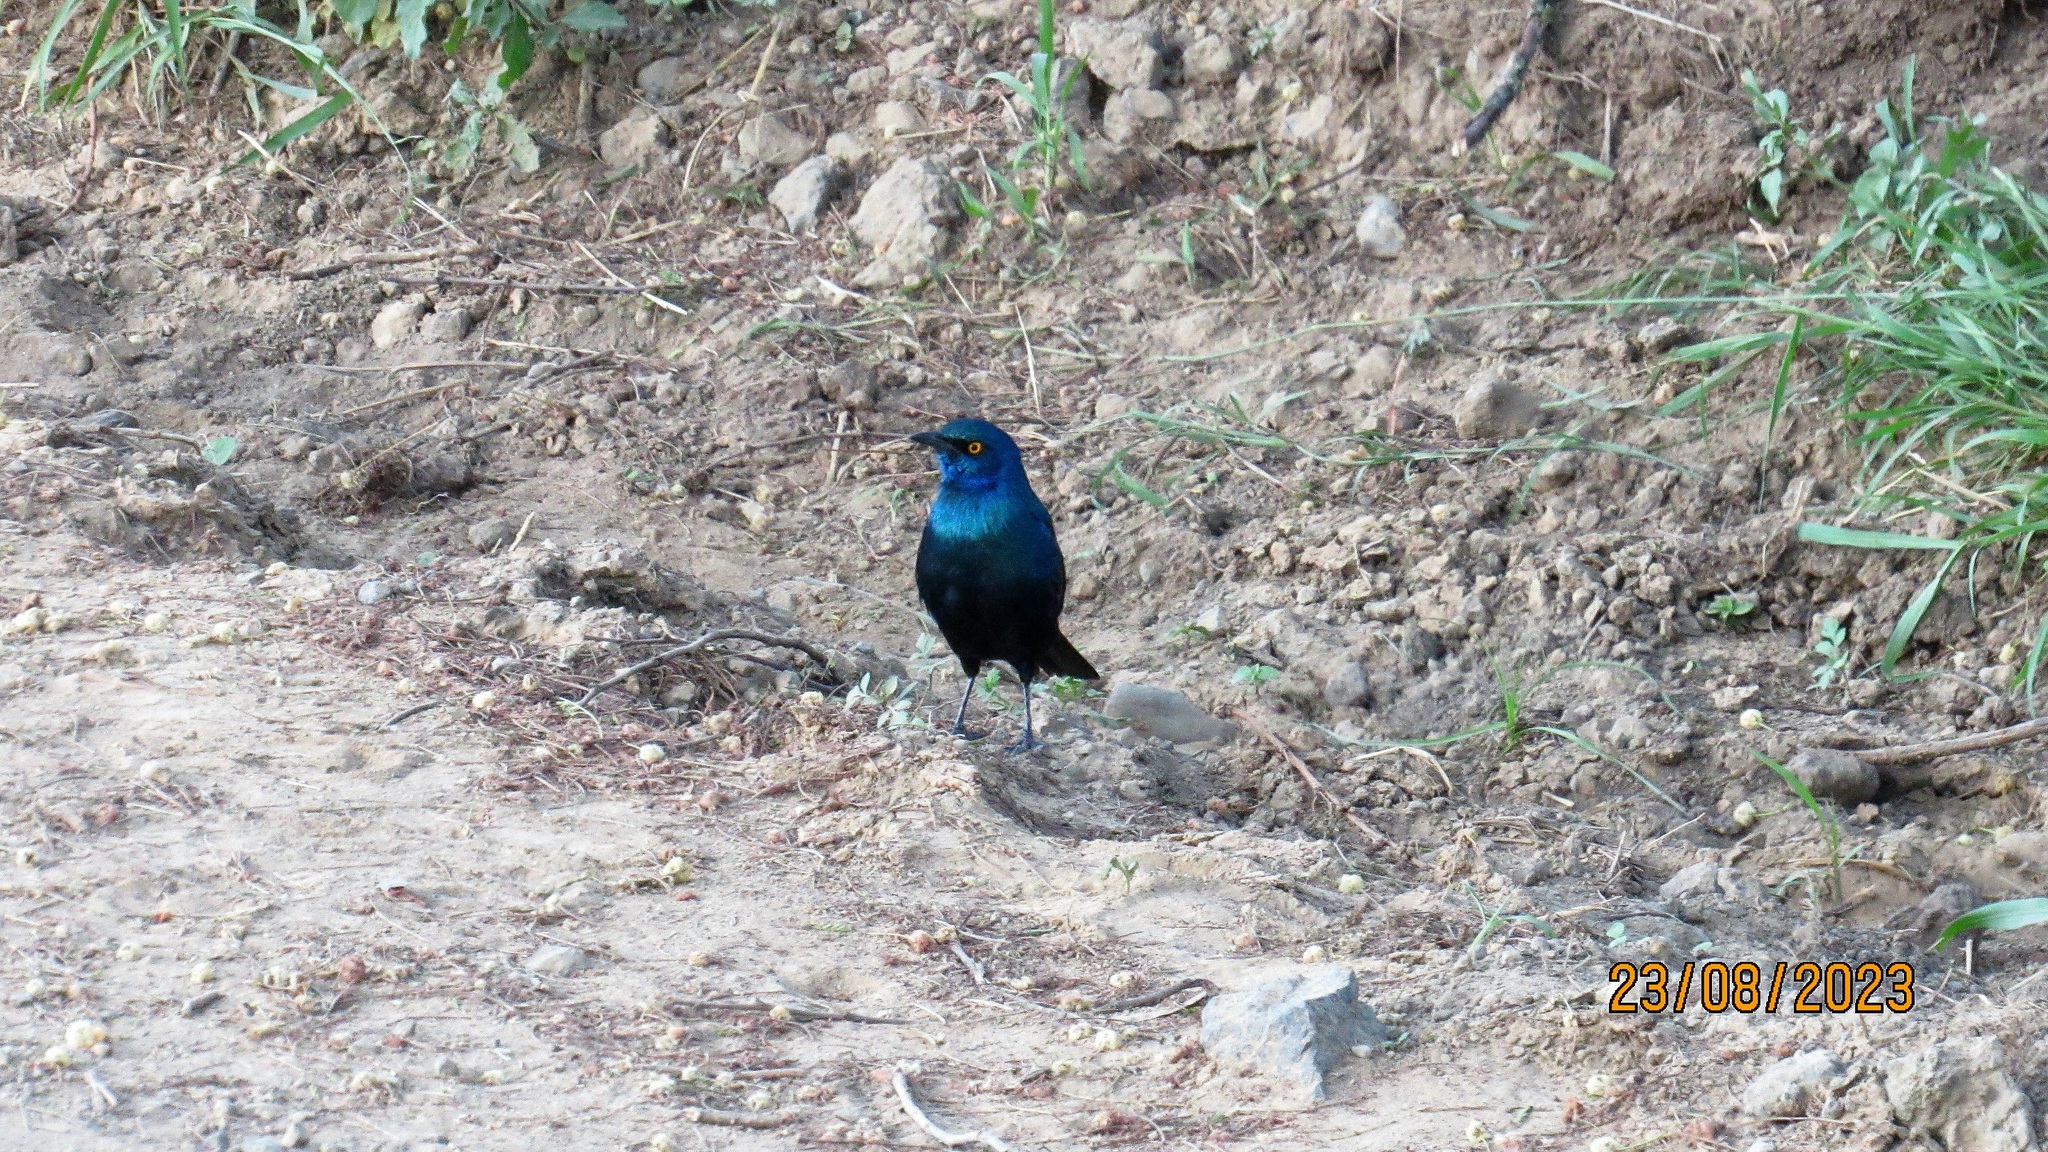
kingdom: Animalia
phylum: Chordata
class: Aves
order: Passeriformes
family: Sturnidae
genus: Lamprotornis
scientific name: Lamprotornis chalybaeus
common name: Greater blue-eared starling
